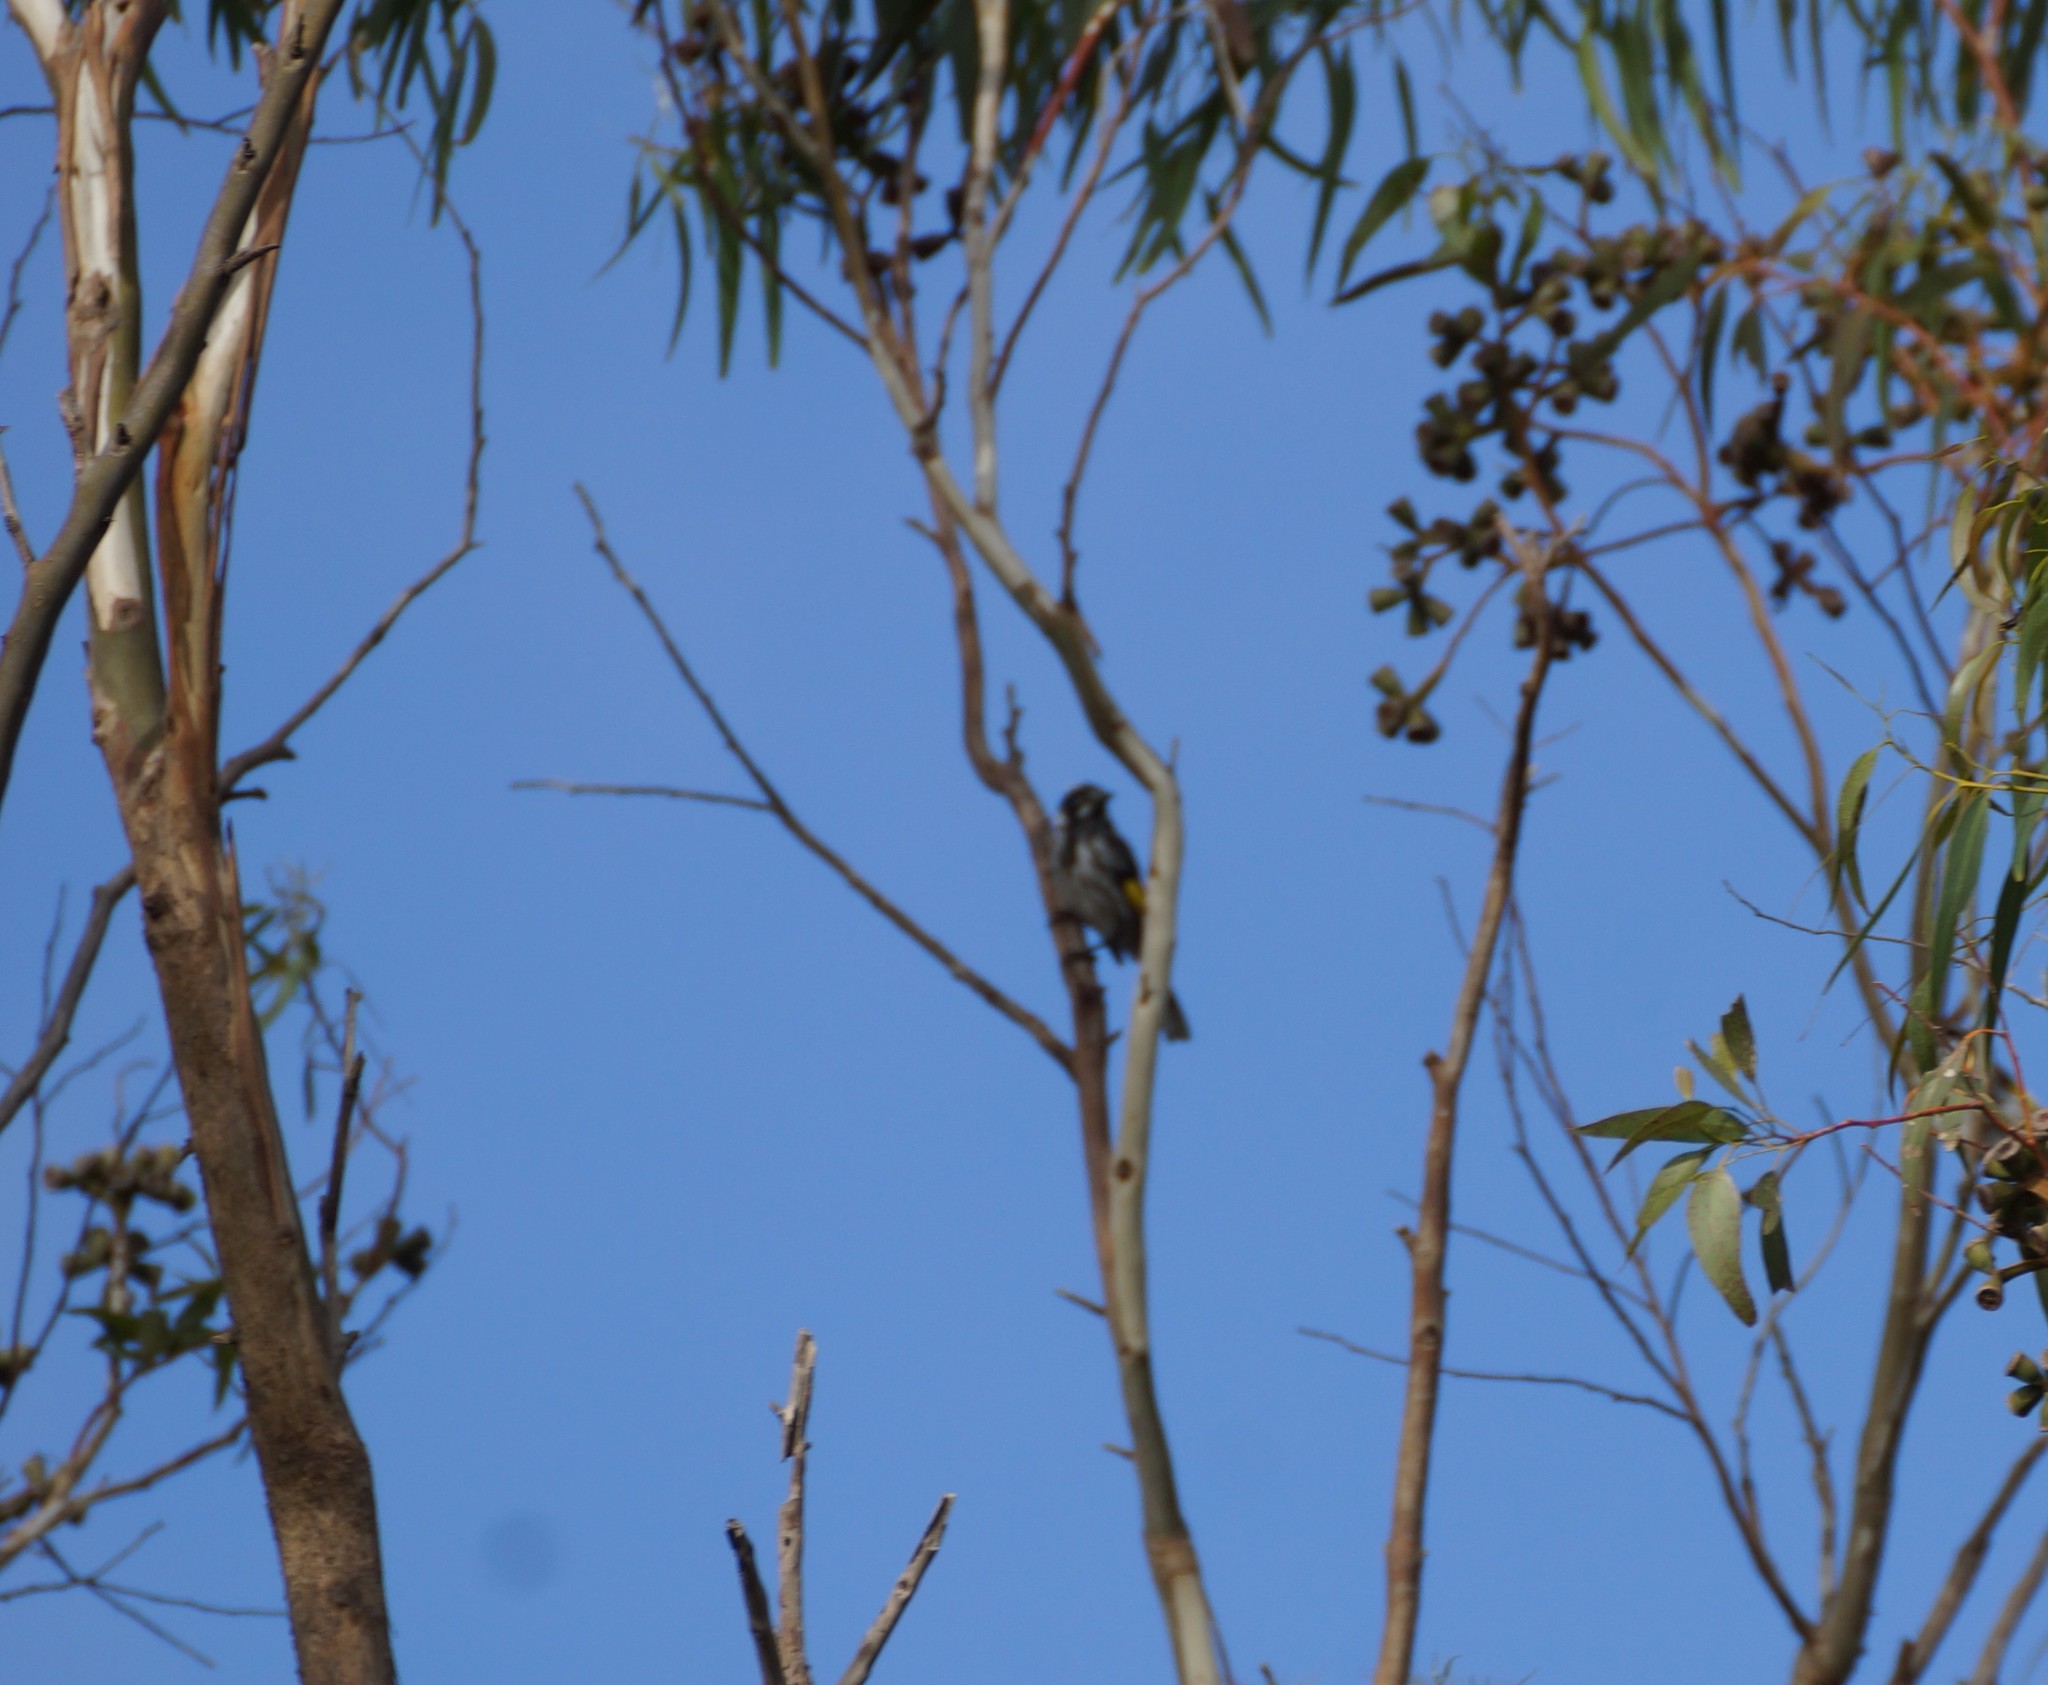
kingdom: Animalia
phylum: Chordata
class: Aves
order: Passeriformes
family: Meliphagidae
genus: Phylidonyris
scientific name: Phylidonyris novaehollandiae
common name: New holland honeyeater
